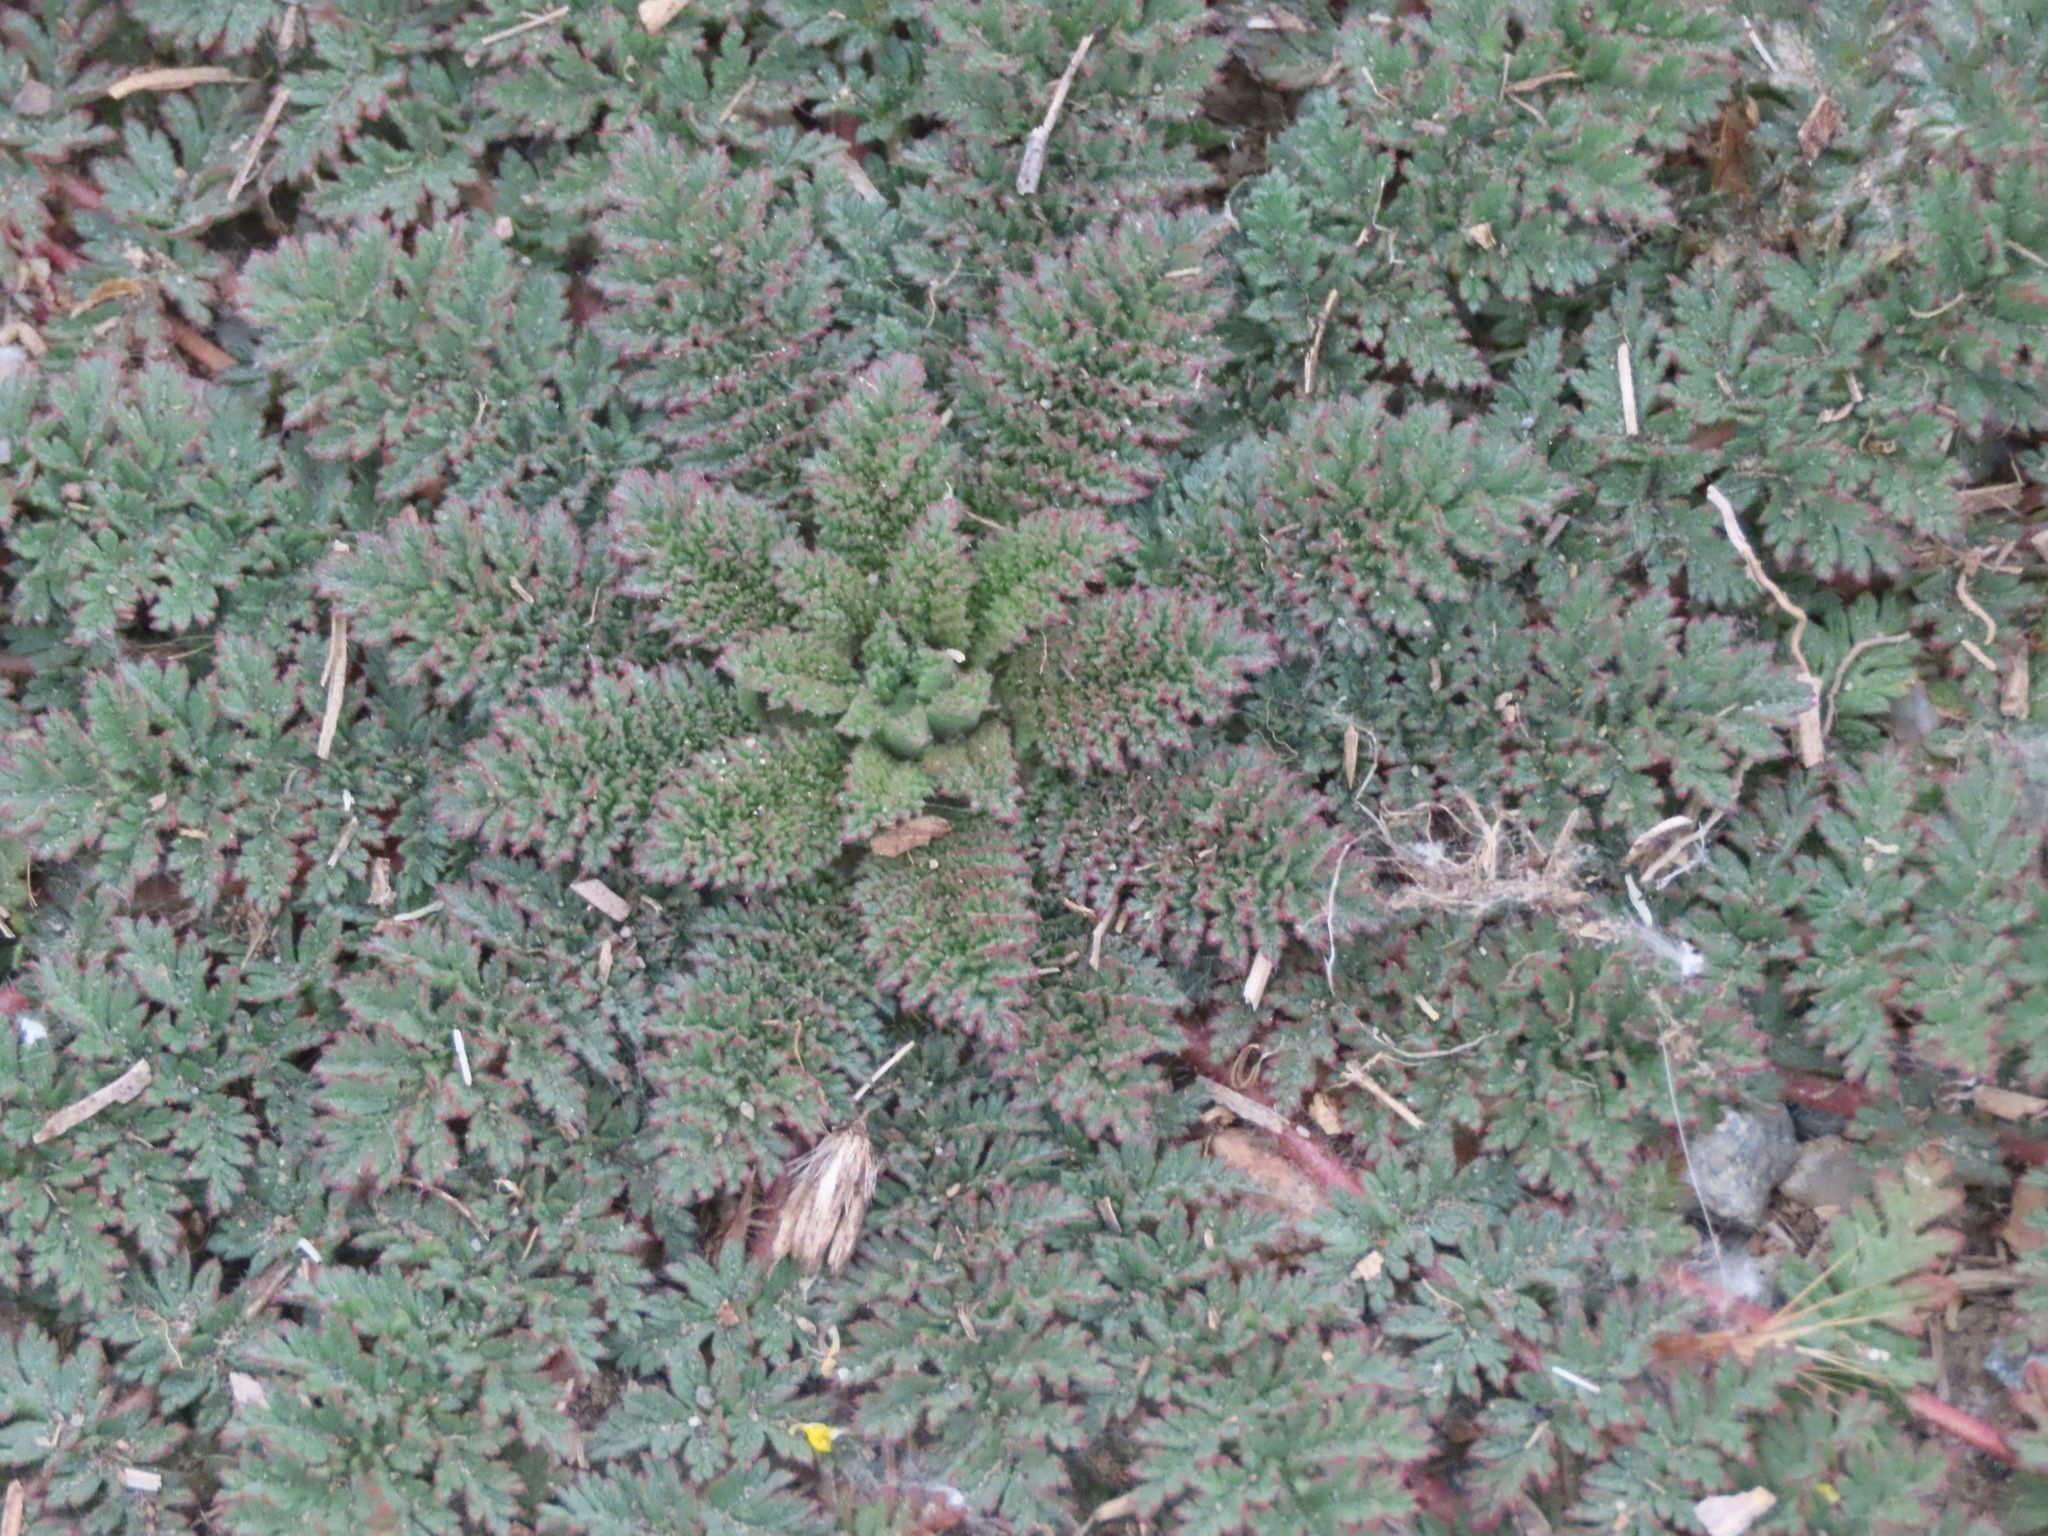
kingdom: Plantae
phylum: Tracheophyta
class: Magnoliopsida
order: Geraniales
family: Geraniaceae
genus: Erodium
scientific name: Erodium cicutarium
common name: Common stork's-bill
